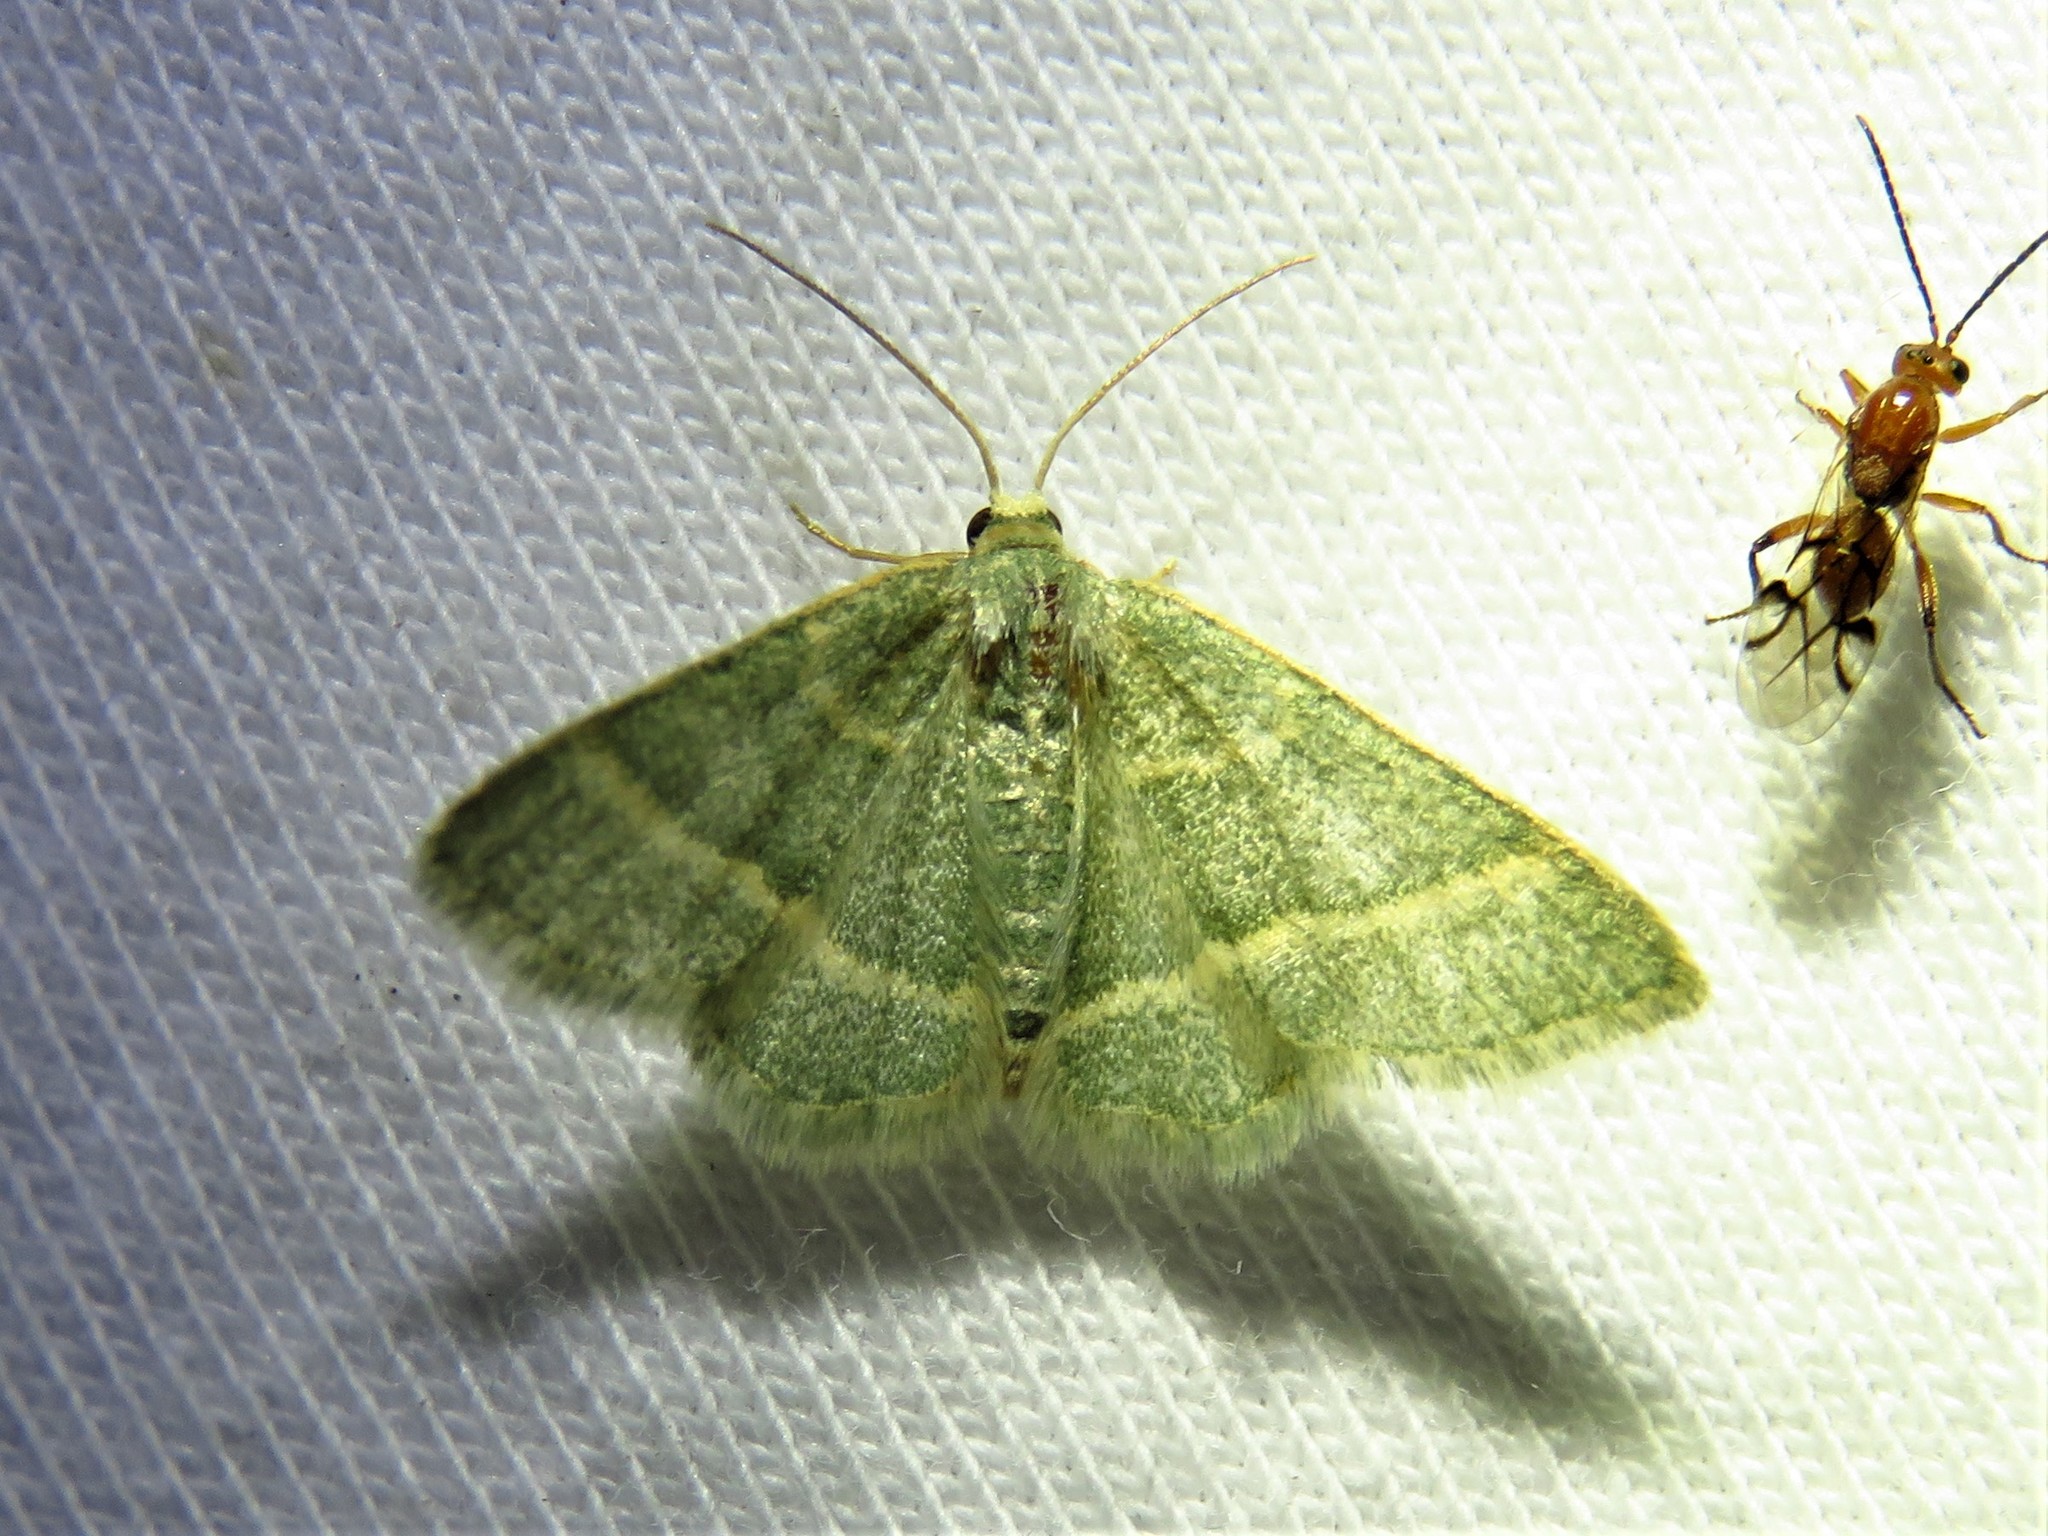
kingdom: Animalia
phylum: Arthropoda
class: Insecta
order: Lepidoptera
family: Geometridae
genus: Chlorochlamys
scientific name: Chlorochlamys appellaria
